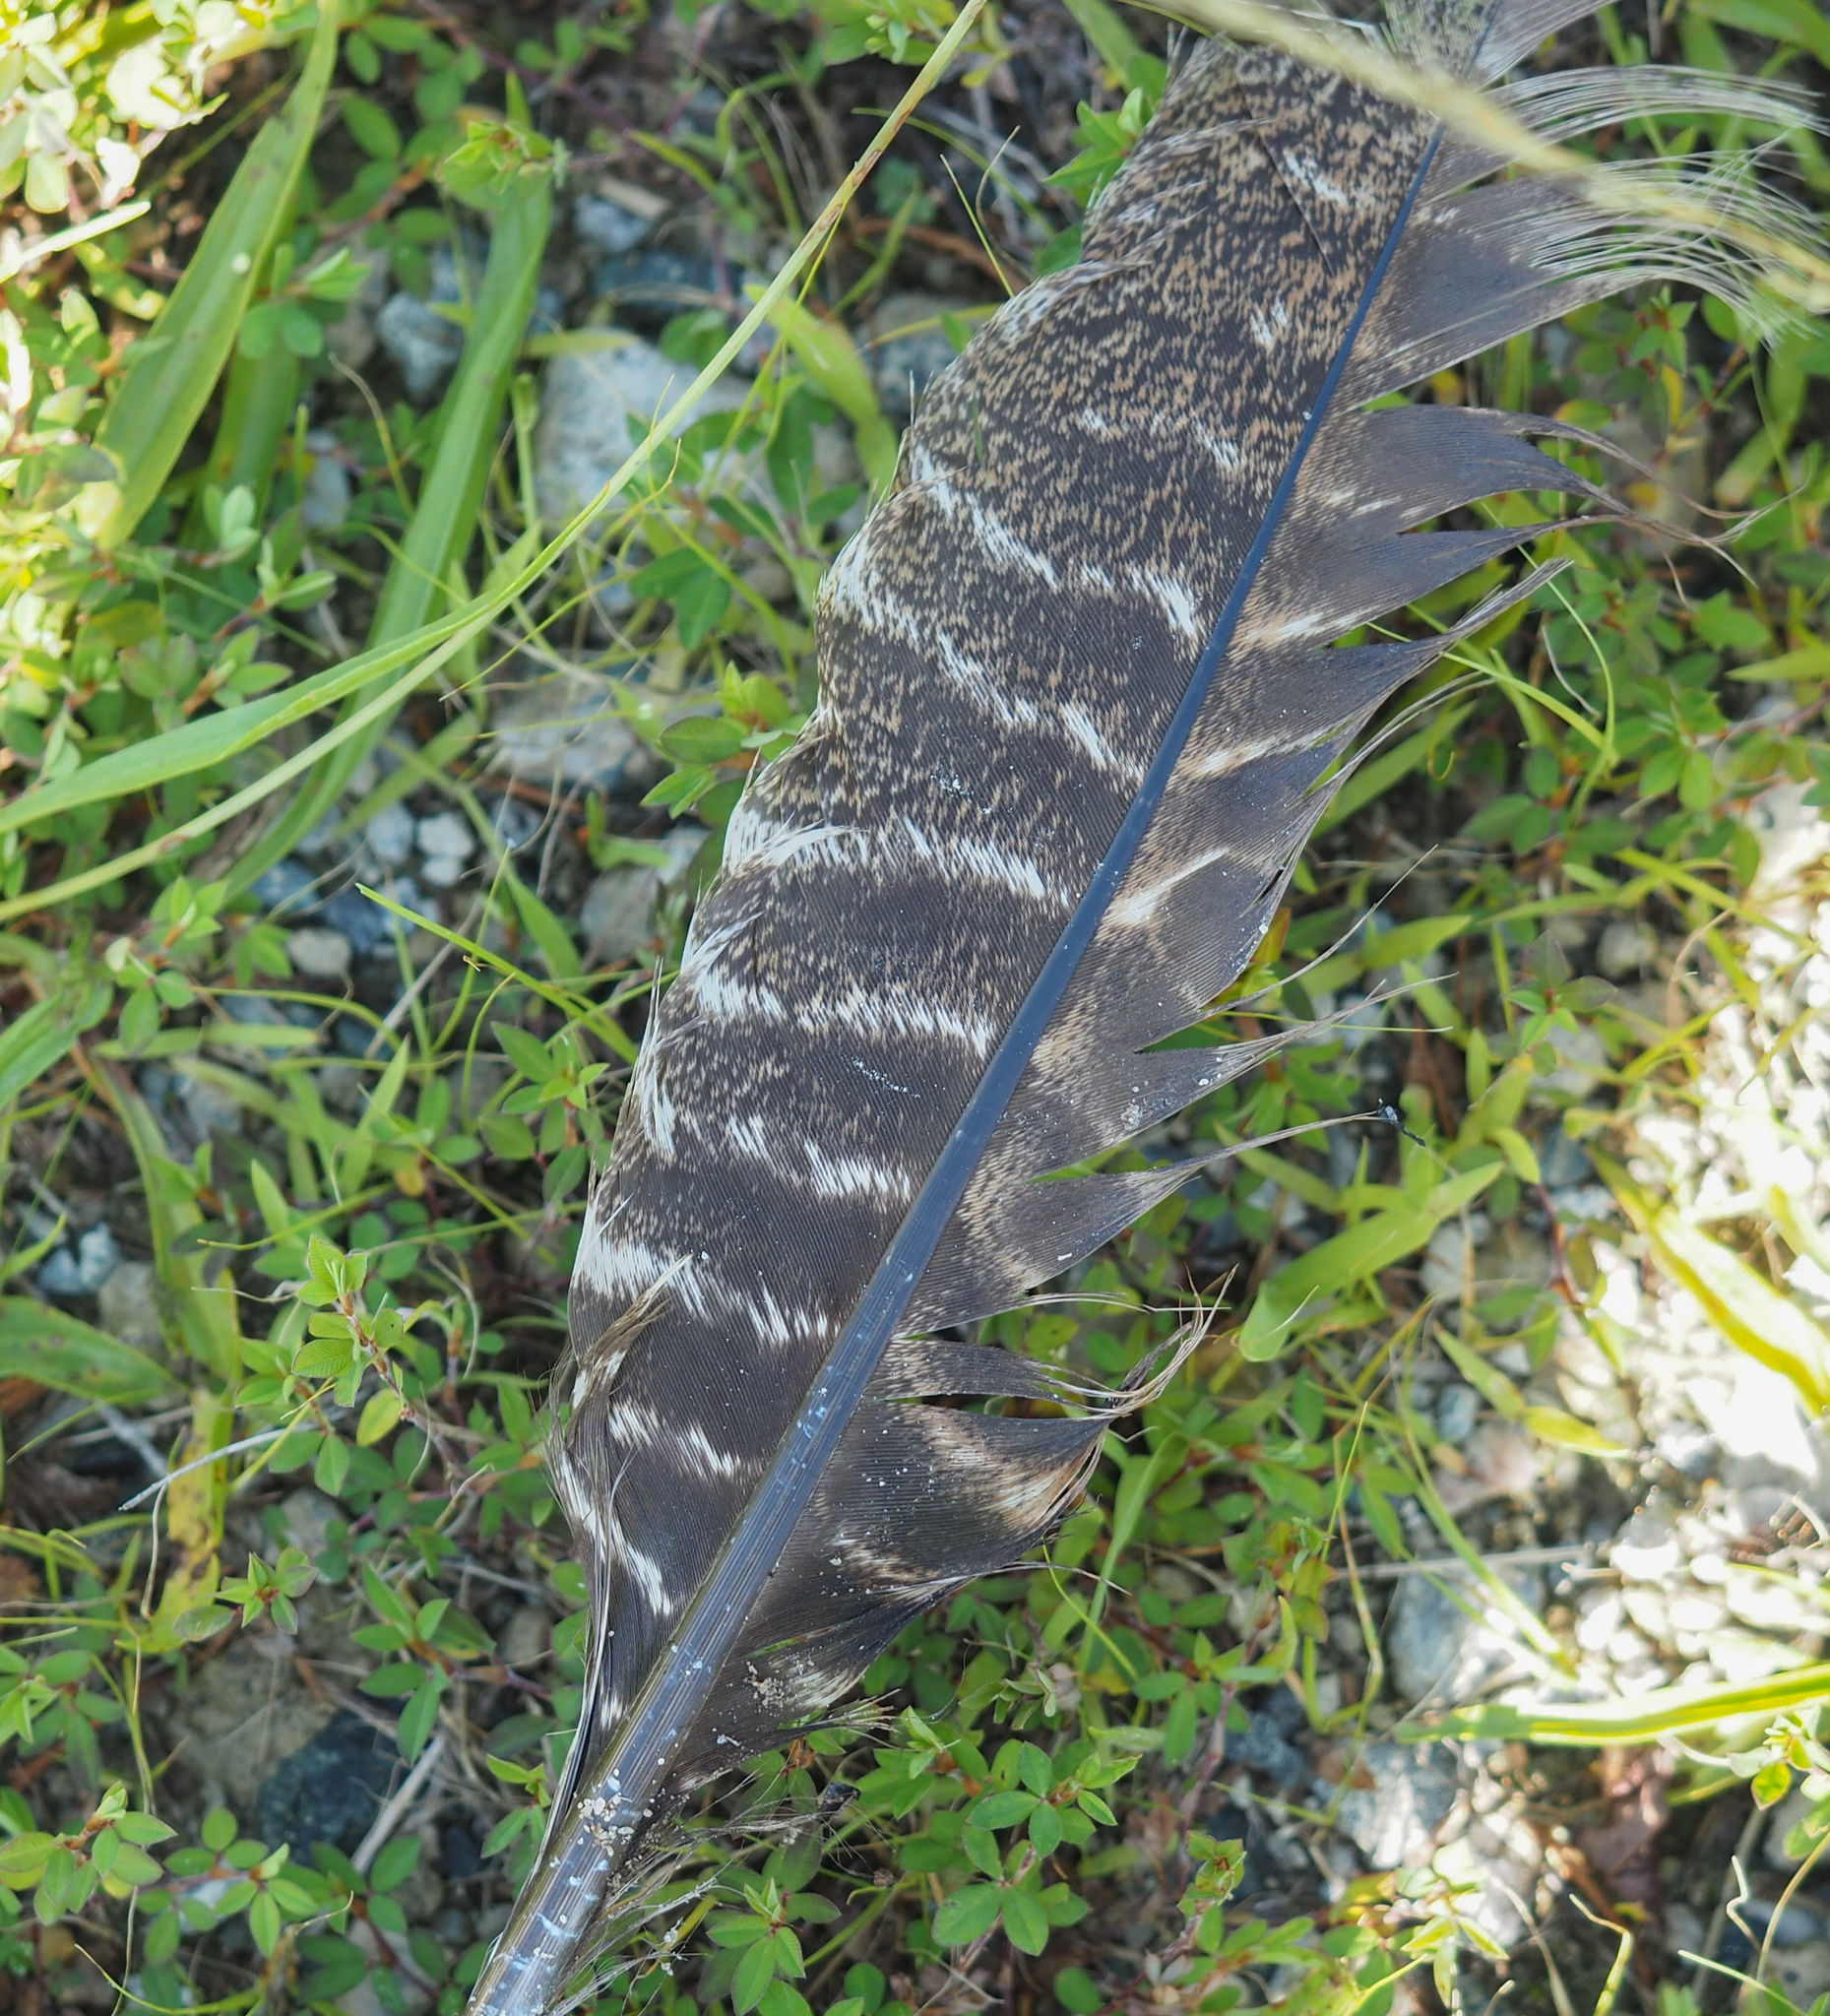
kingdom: Animalia
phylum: Chordata
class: Aves
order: Galliformes
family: Phasianidae
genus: Meleagris
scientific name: Meleagris gallopavo
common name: Wild turkey
